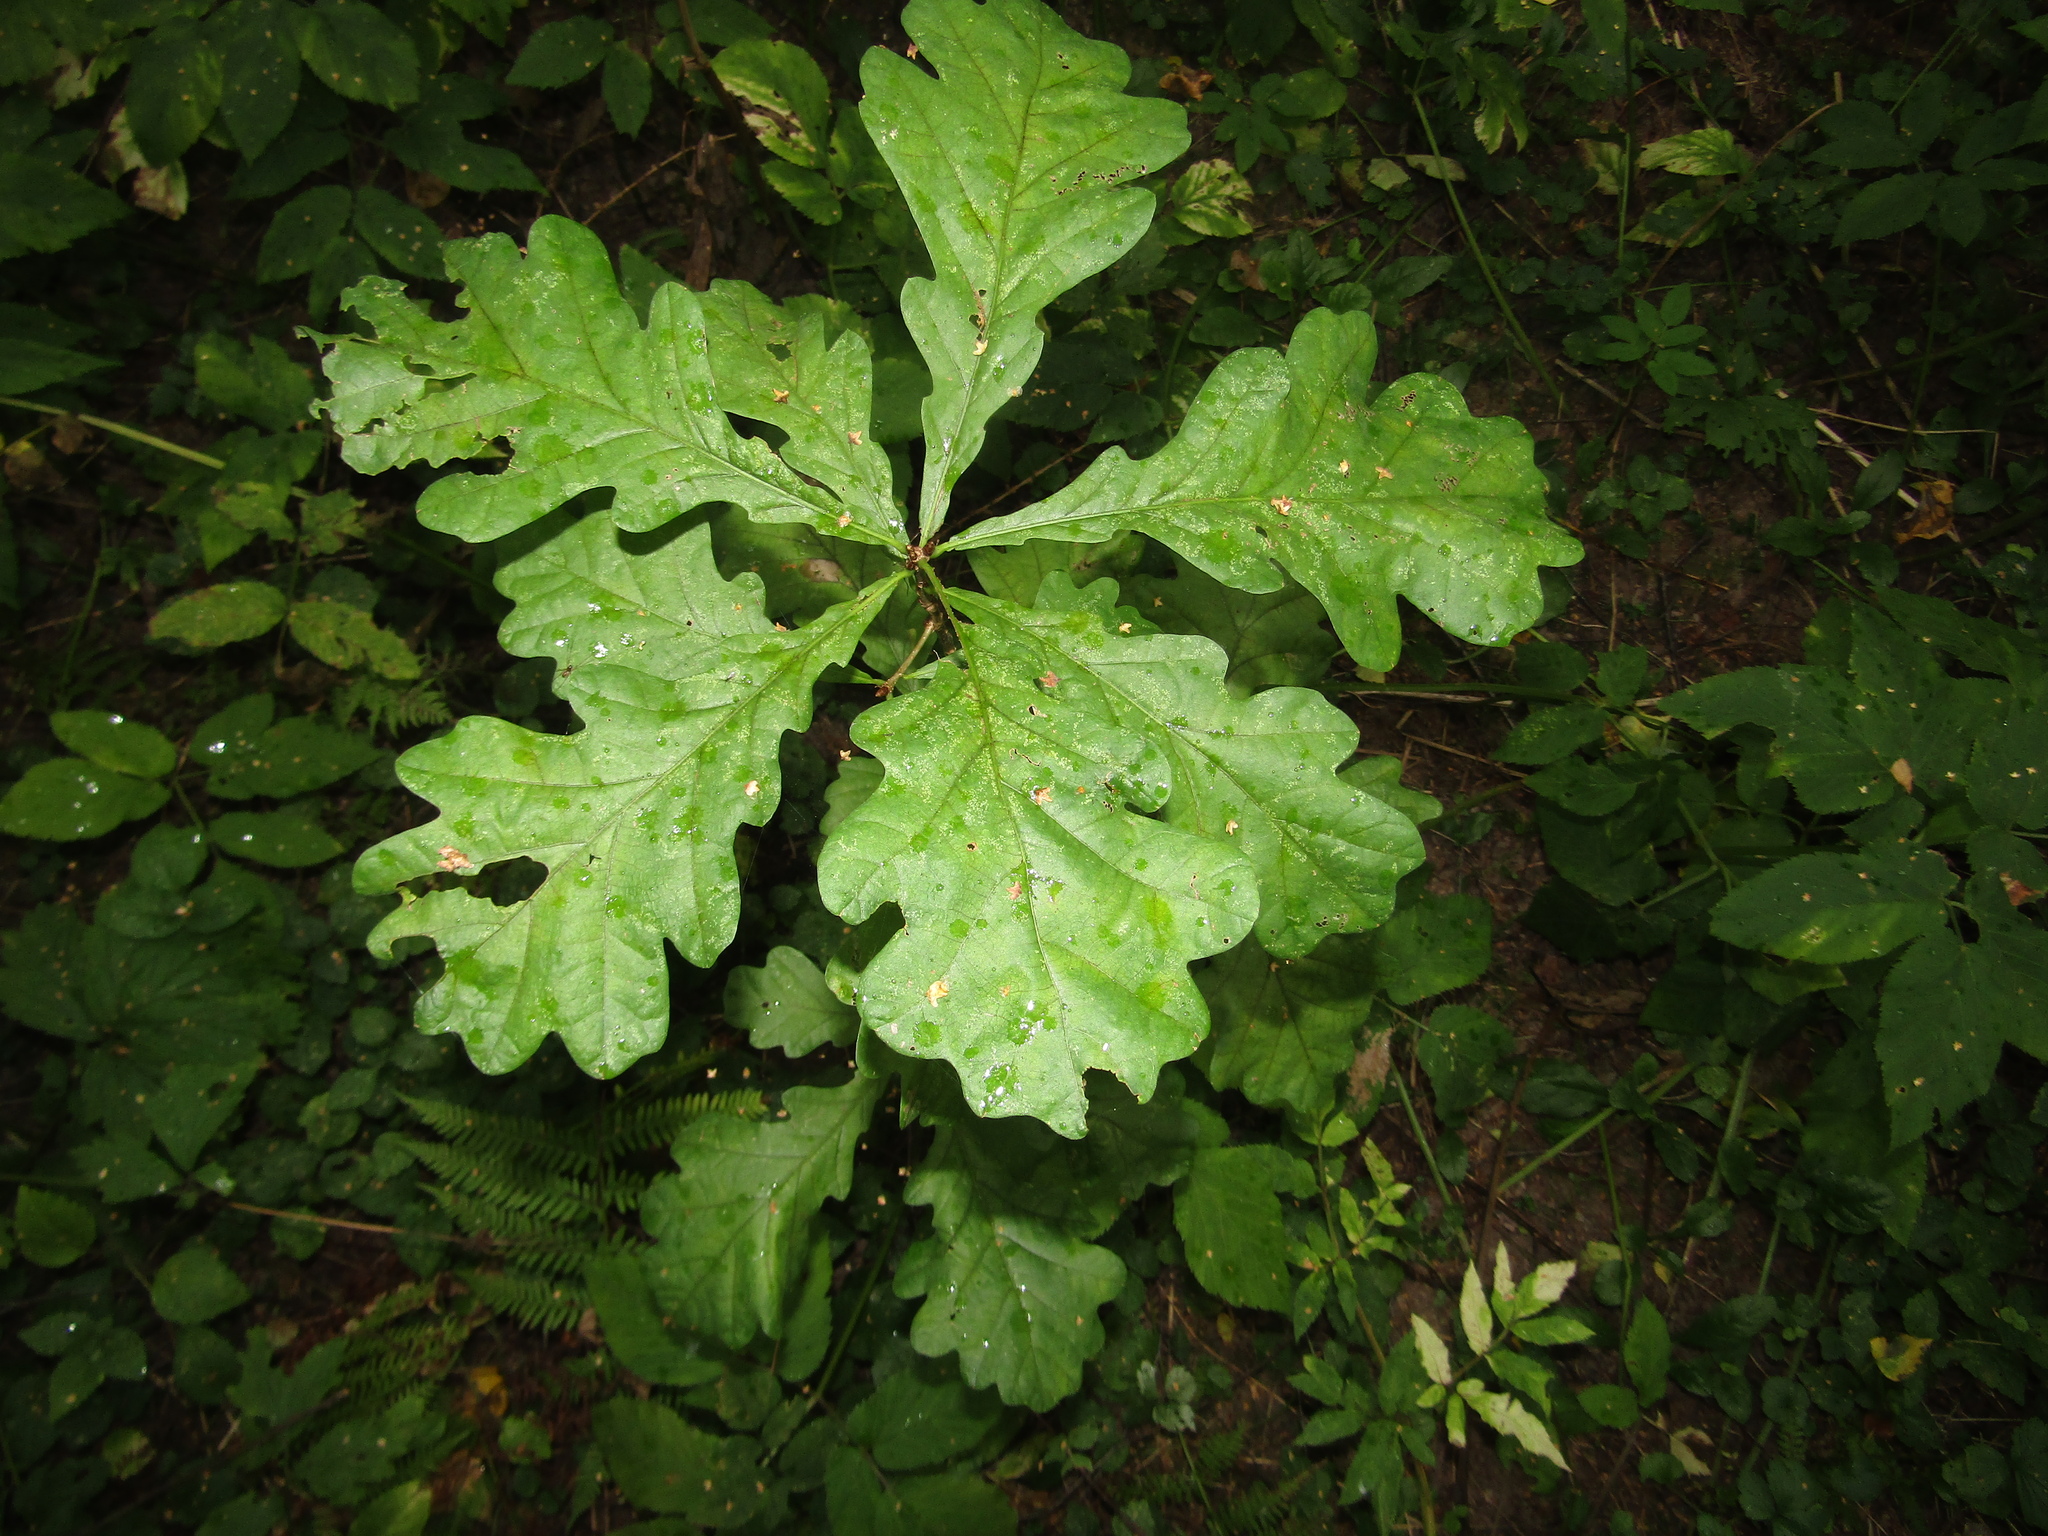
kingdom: Plantae
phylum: Tracheophyta
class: Magnoliopsida
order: Fagales
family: Fagaceae
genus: Quercus
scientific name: Quercus robur
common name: Pedunculate oak
